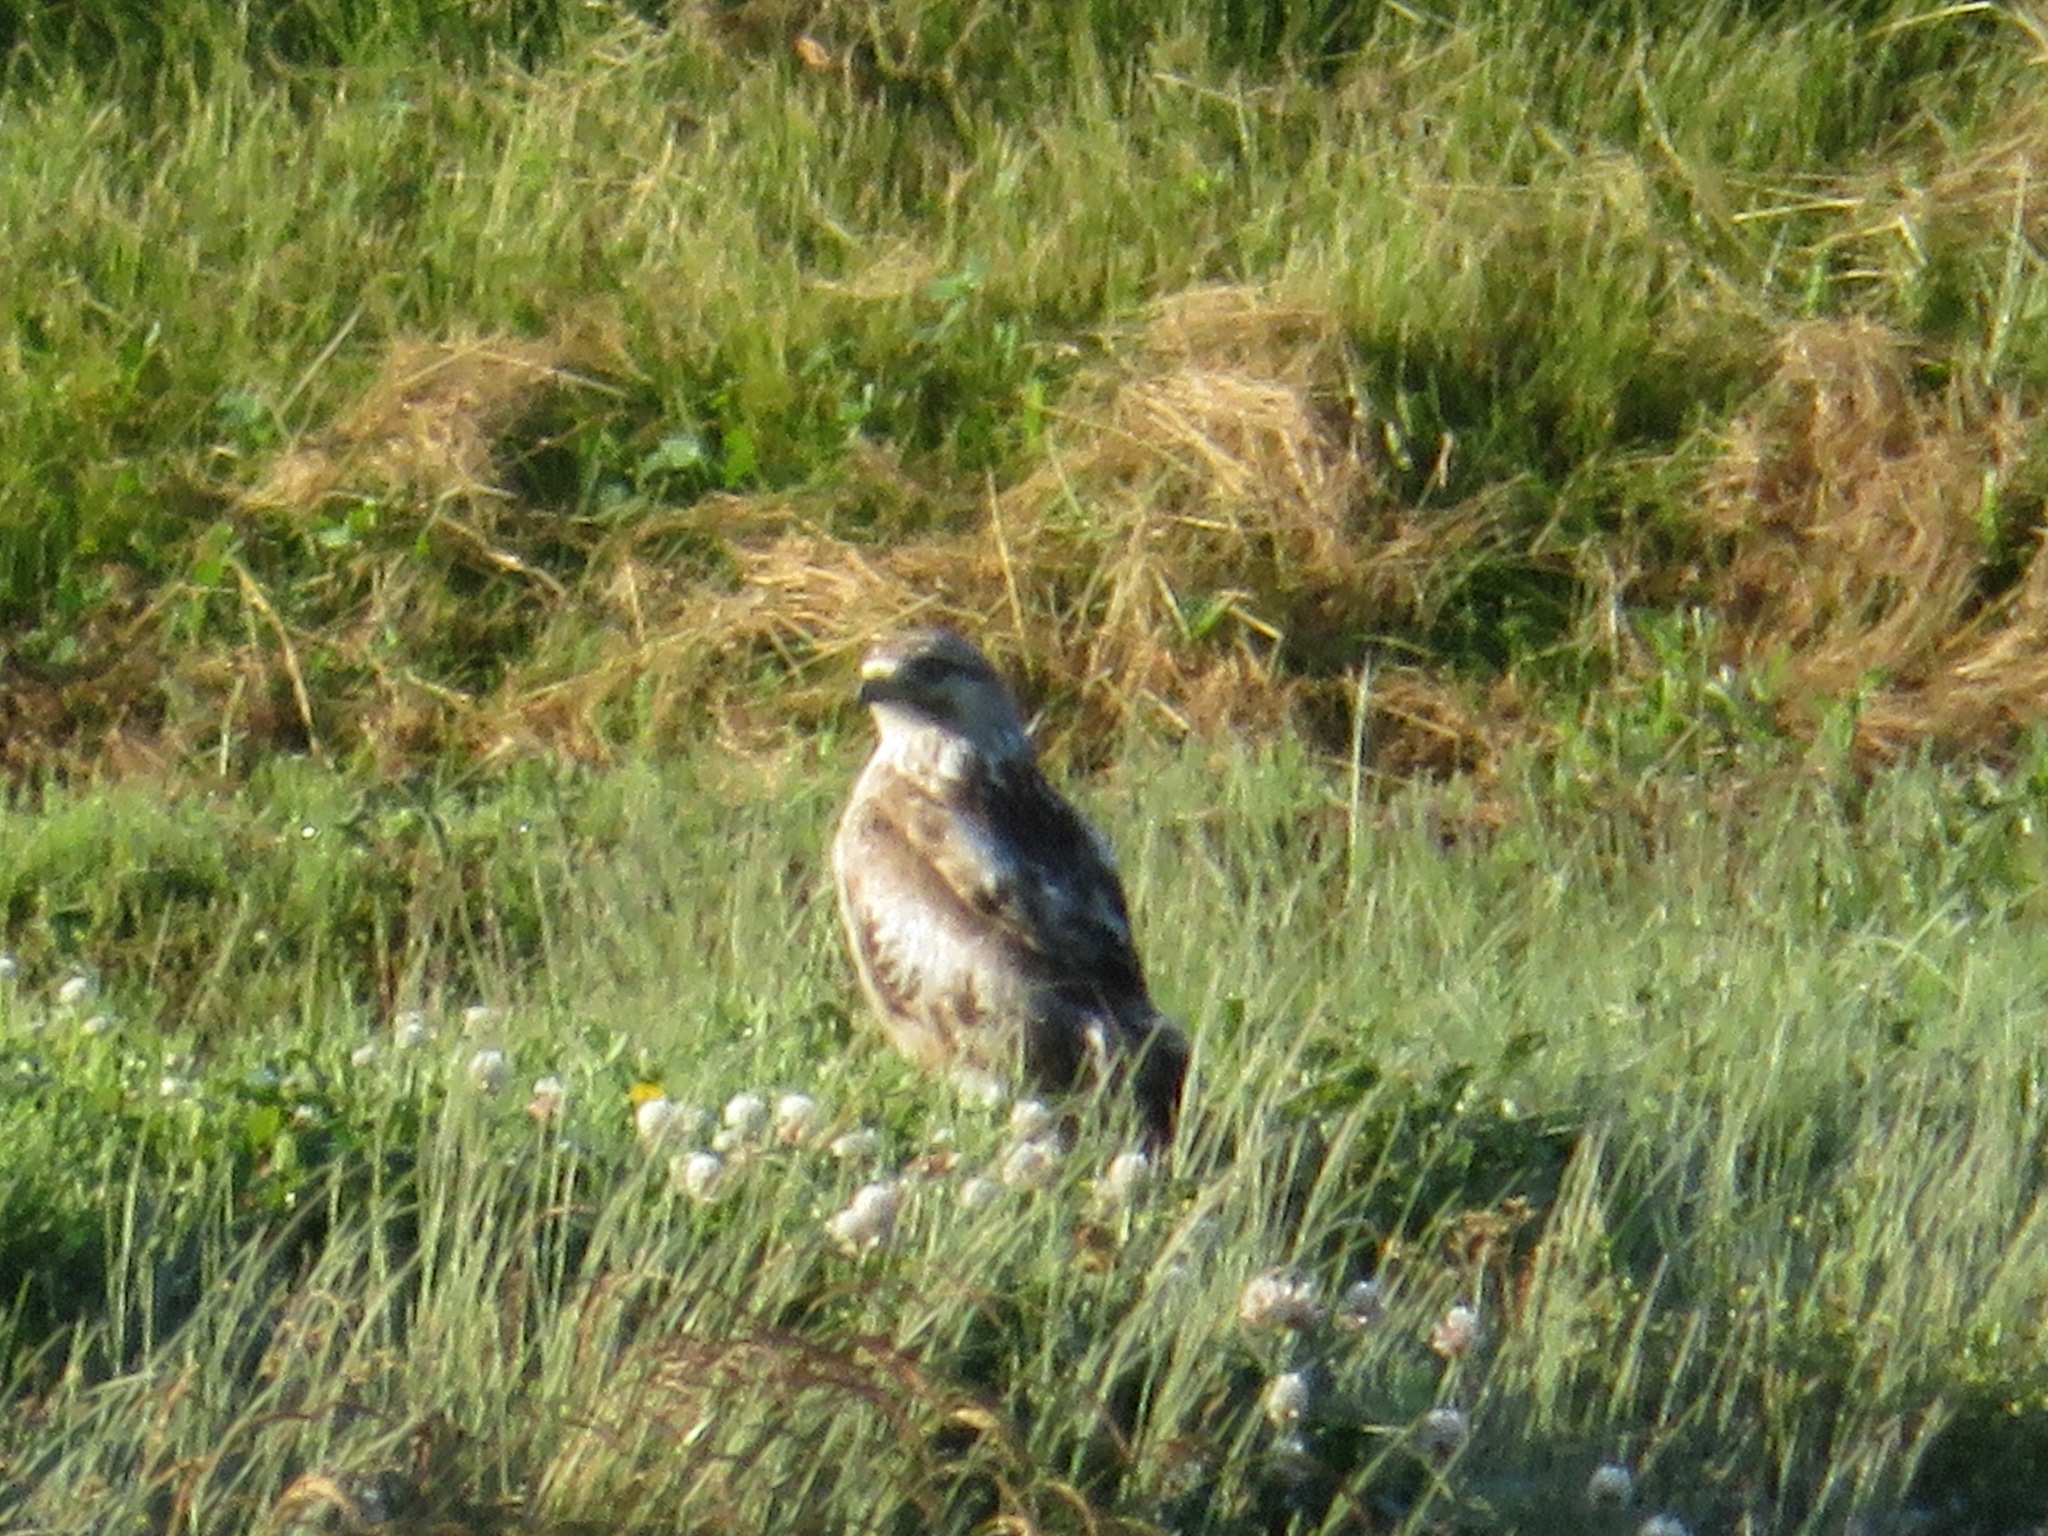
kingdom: Animalia
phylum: Chordata
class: Aves
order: Accipitriformes
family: Accipitridae
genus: Buteo
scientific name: Buteo japonicus
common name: Eastern buzzard
